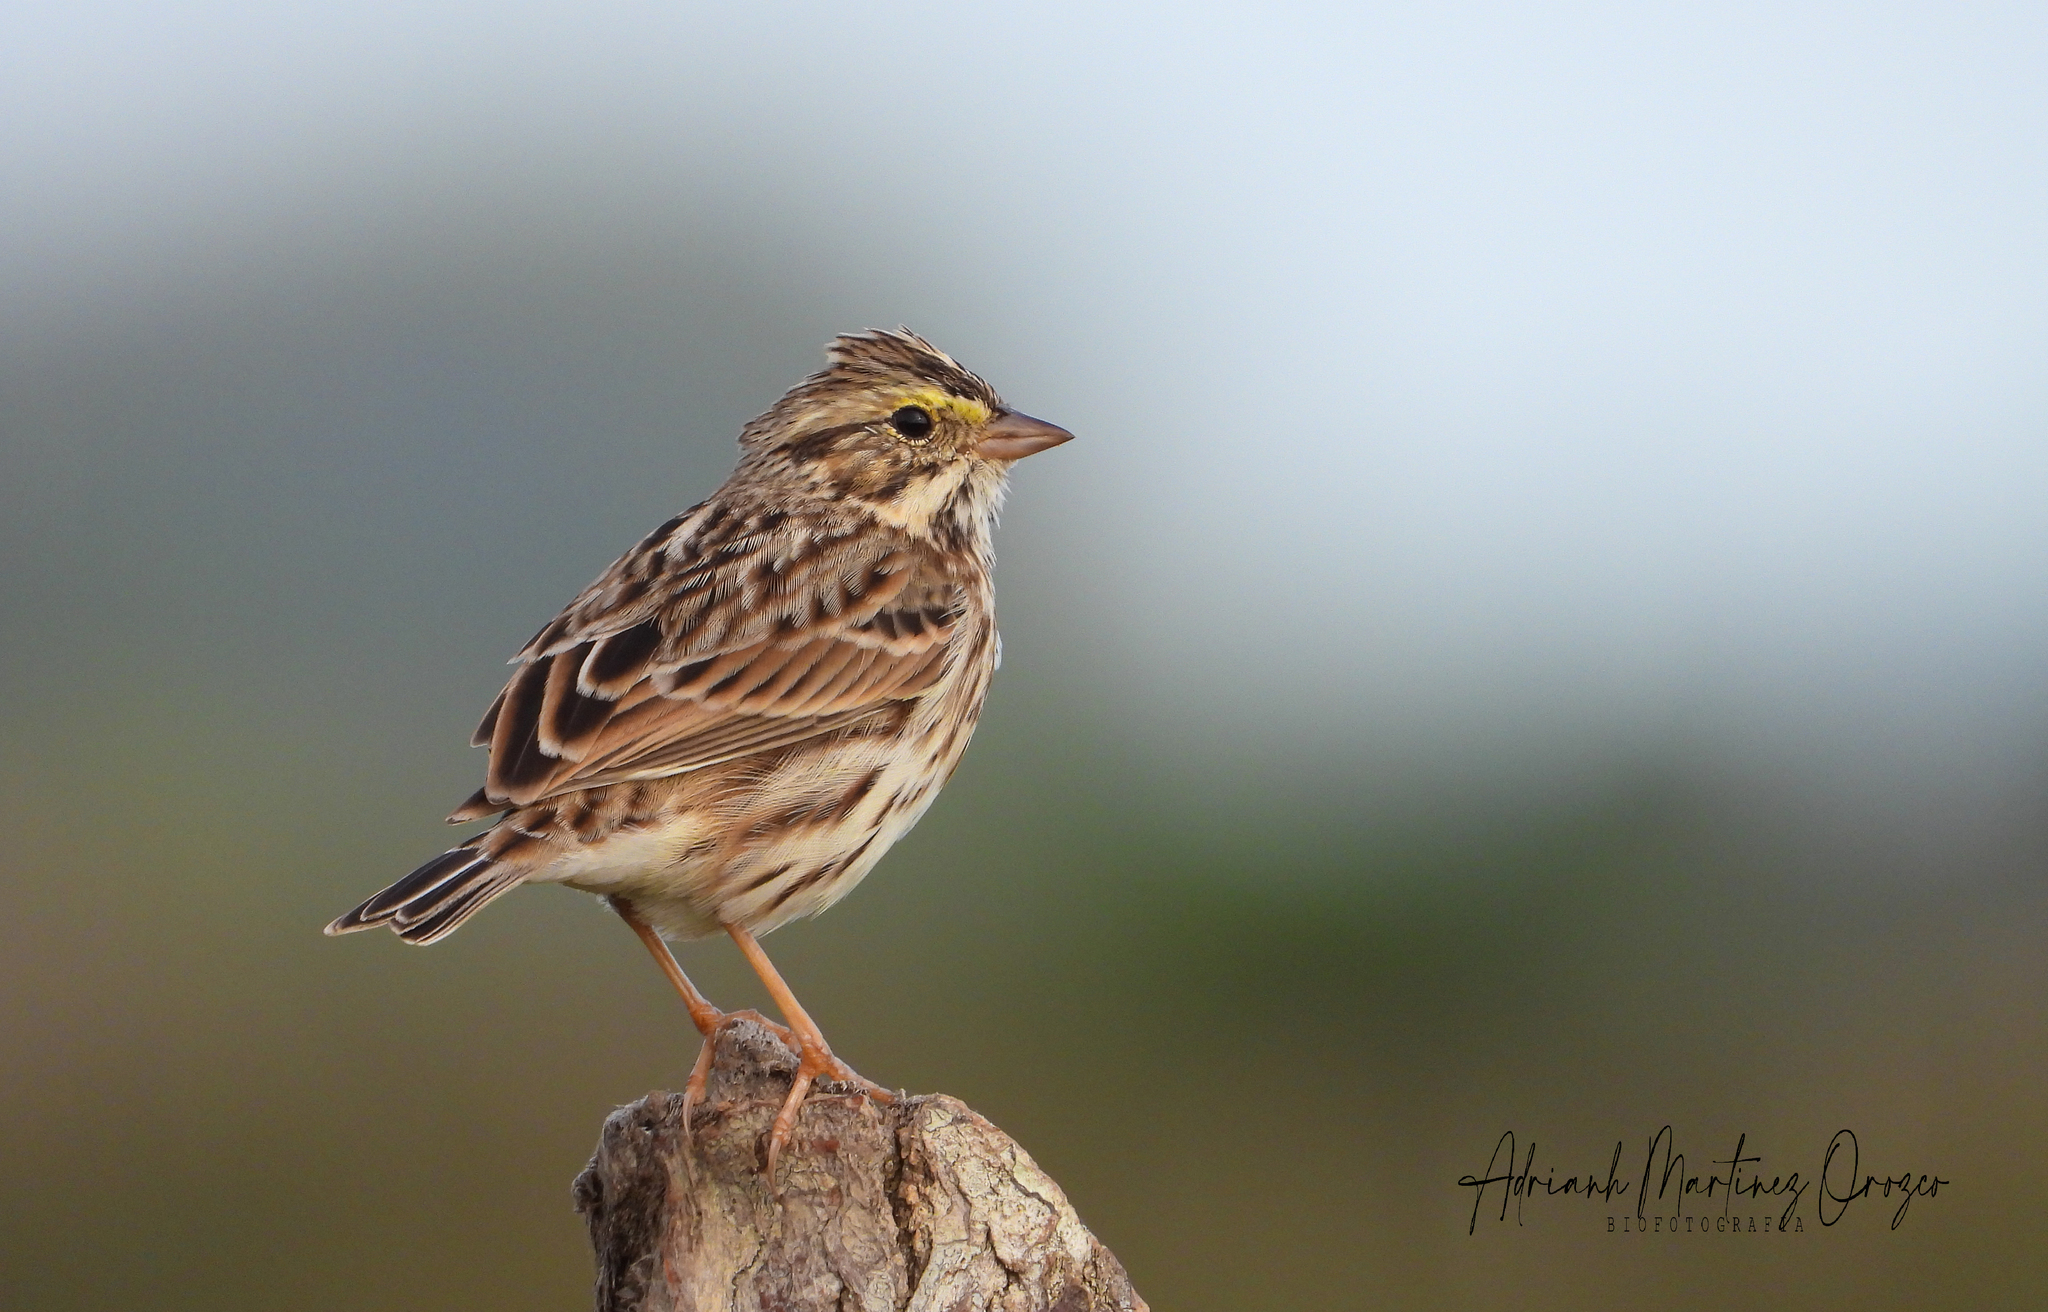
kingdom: Animalia
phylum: Chordata
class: Aves
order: Passeriformes
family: Passerellidae
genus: Passerculus
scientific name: Passerculus sandwichensis
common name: Savannah sparrow
